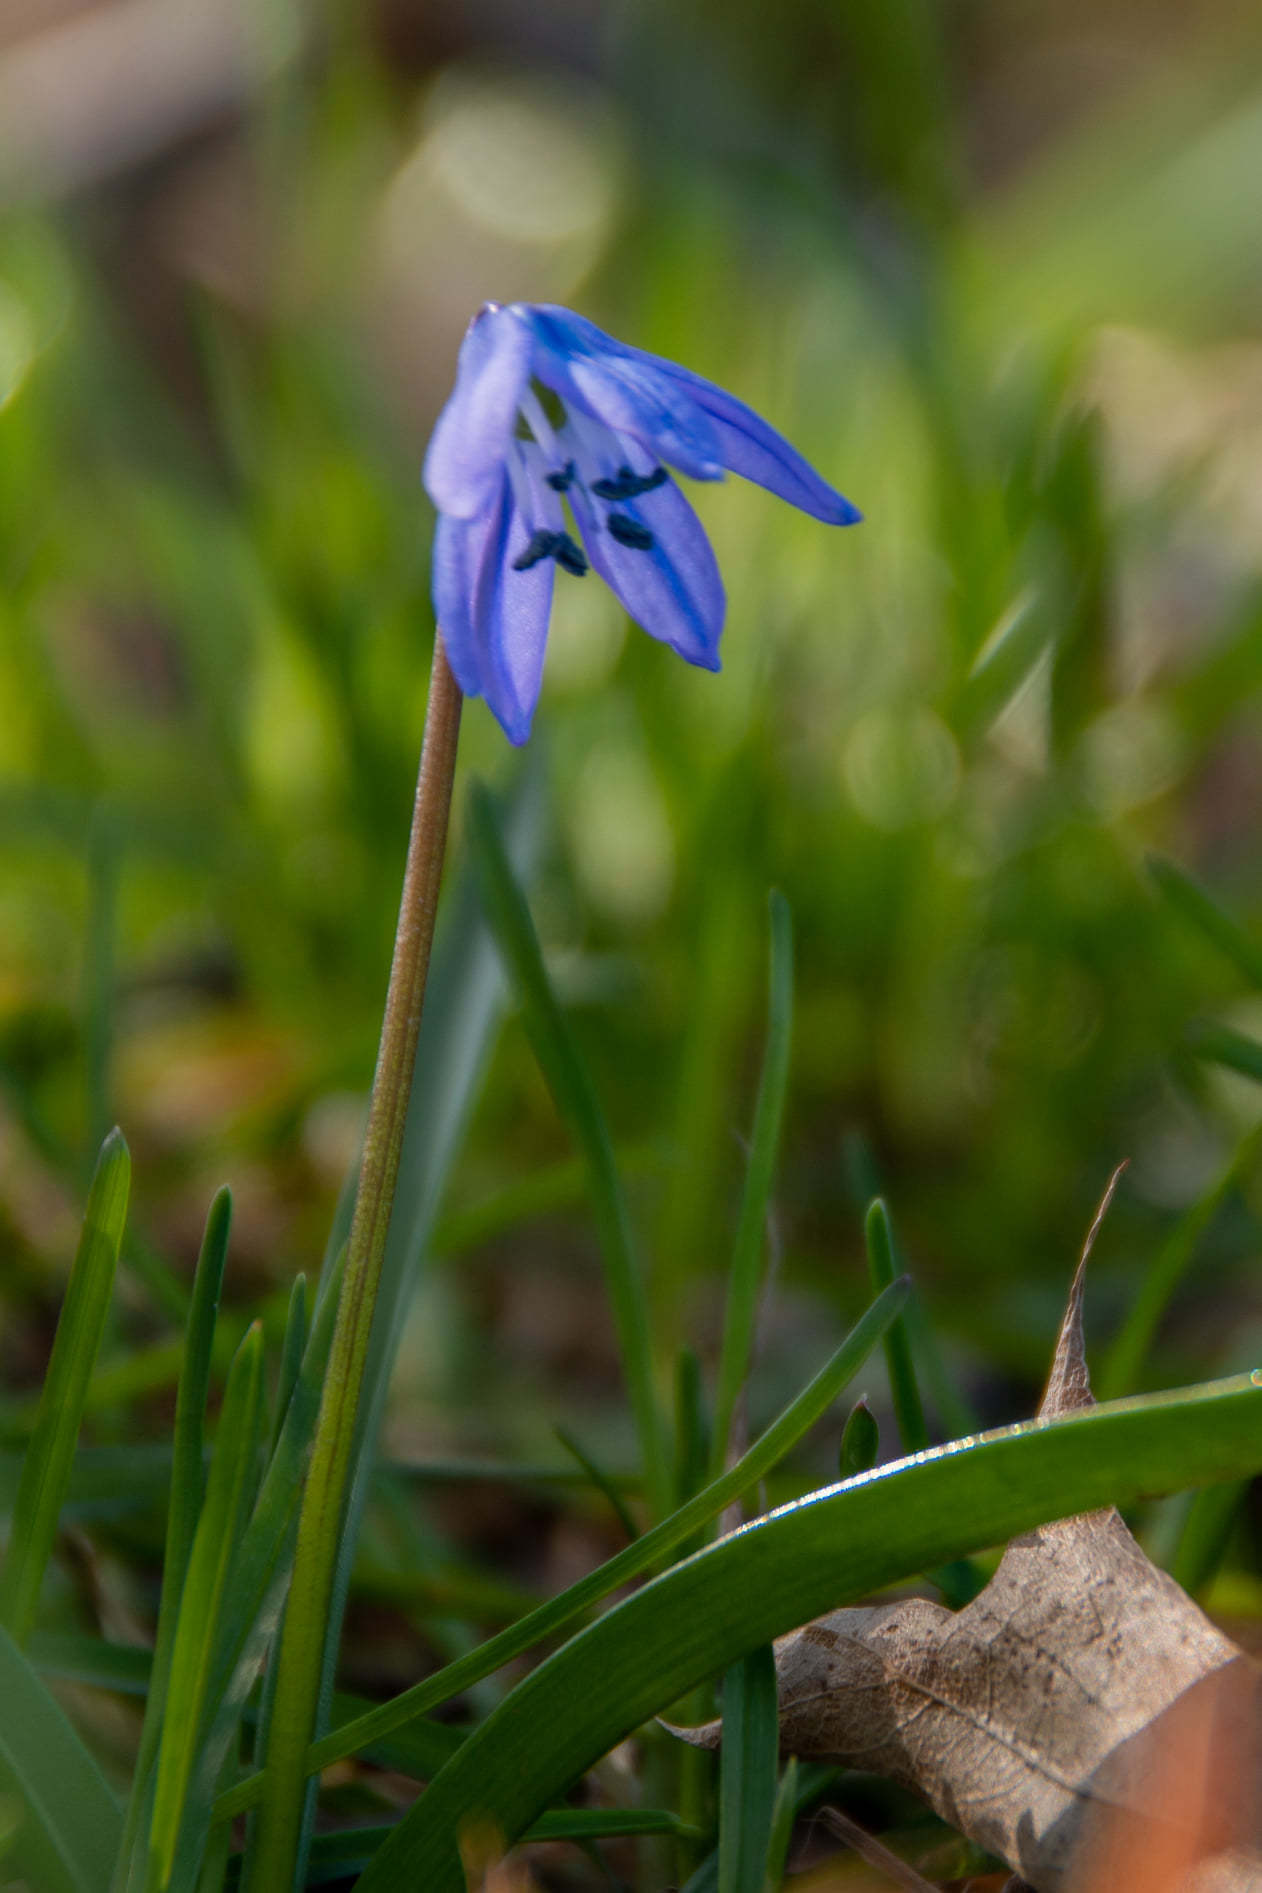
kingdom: Plantae
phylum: Tracheophyta
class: Liliopsida
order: Asparagales
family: Asparagaceae
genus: Scilla
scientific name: Scilla siberica
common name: Siberian squill
